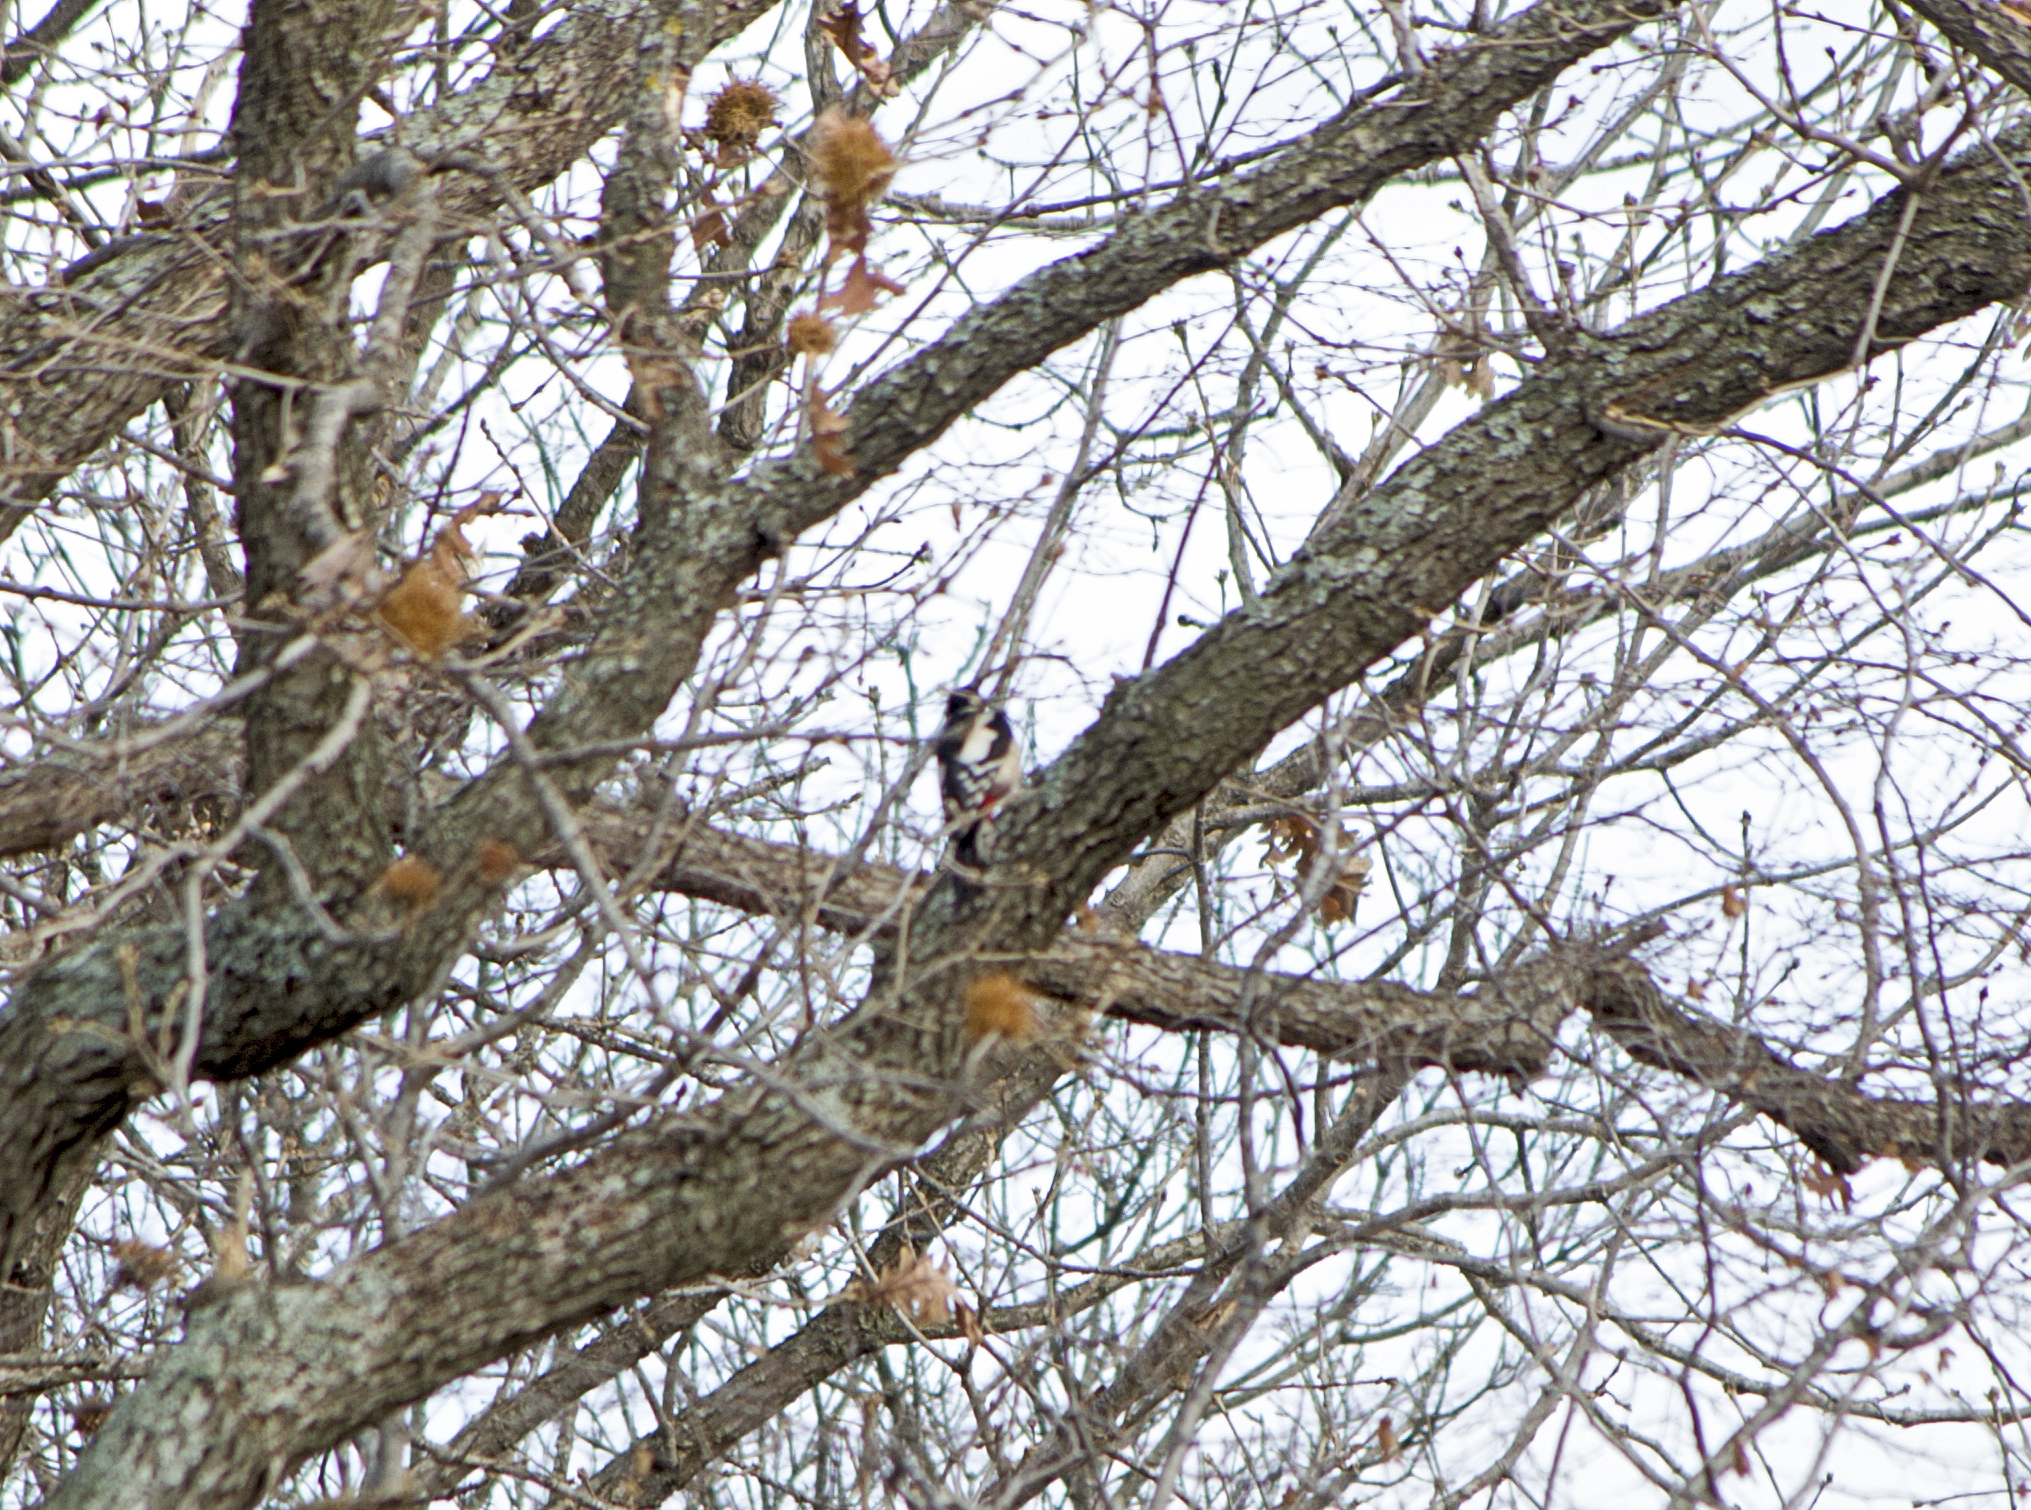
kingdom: Animalia
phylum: Chordata
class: Aves
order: Piciformes
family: Picidae
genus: Dendrocopos
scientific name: Dendrocopos major
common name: Great spotted woodpecker
